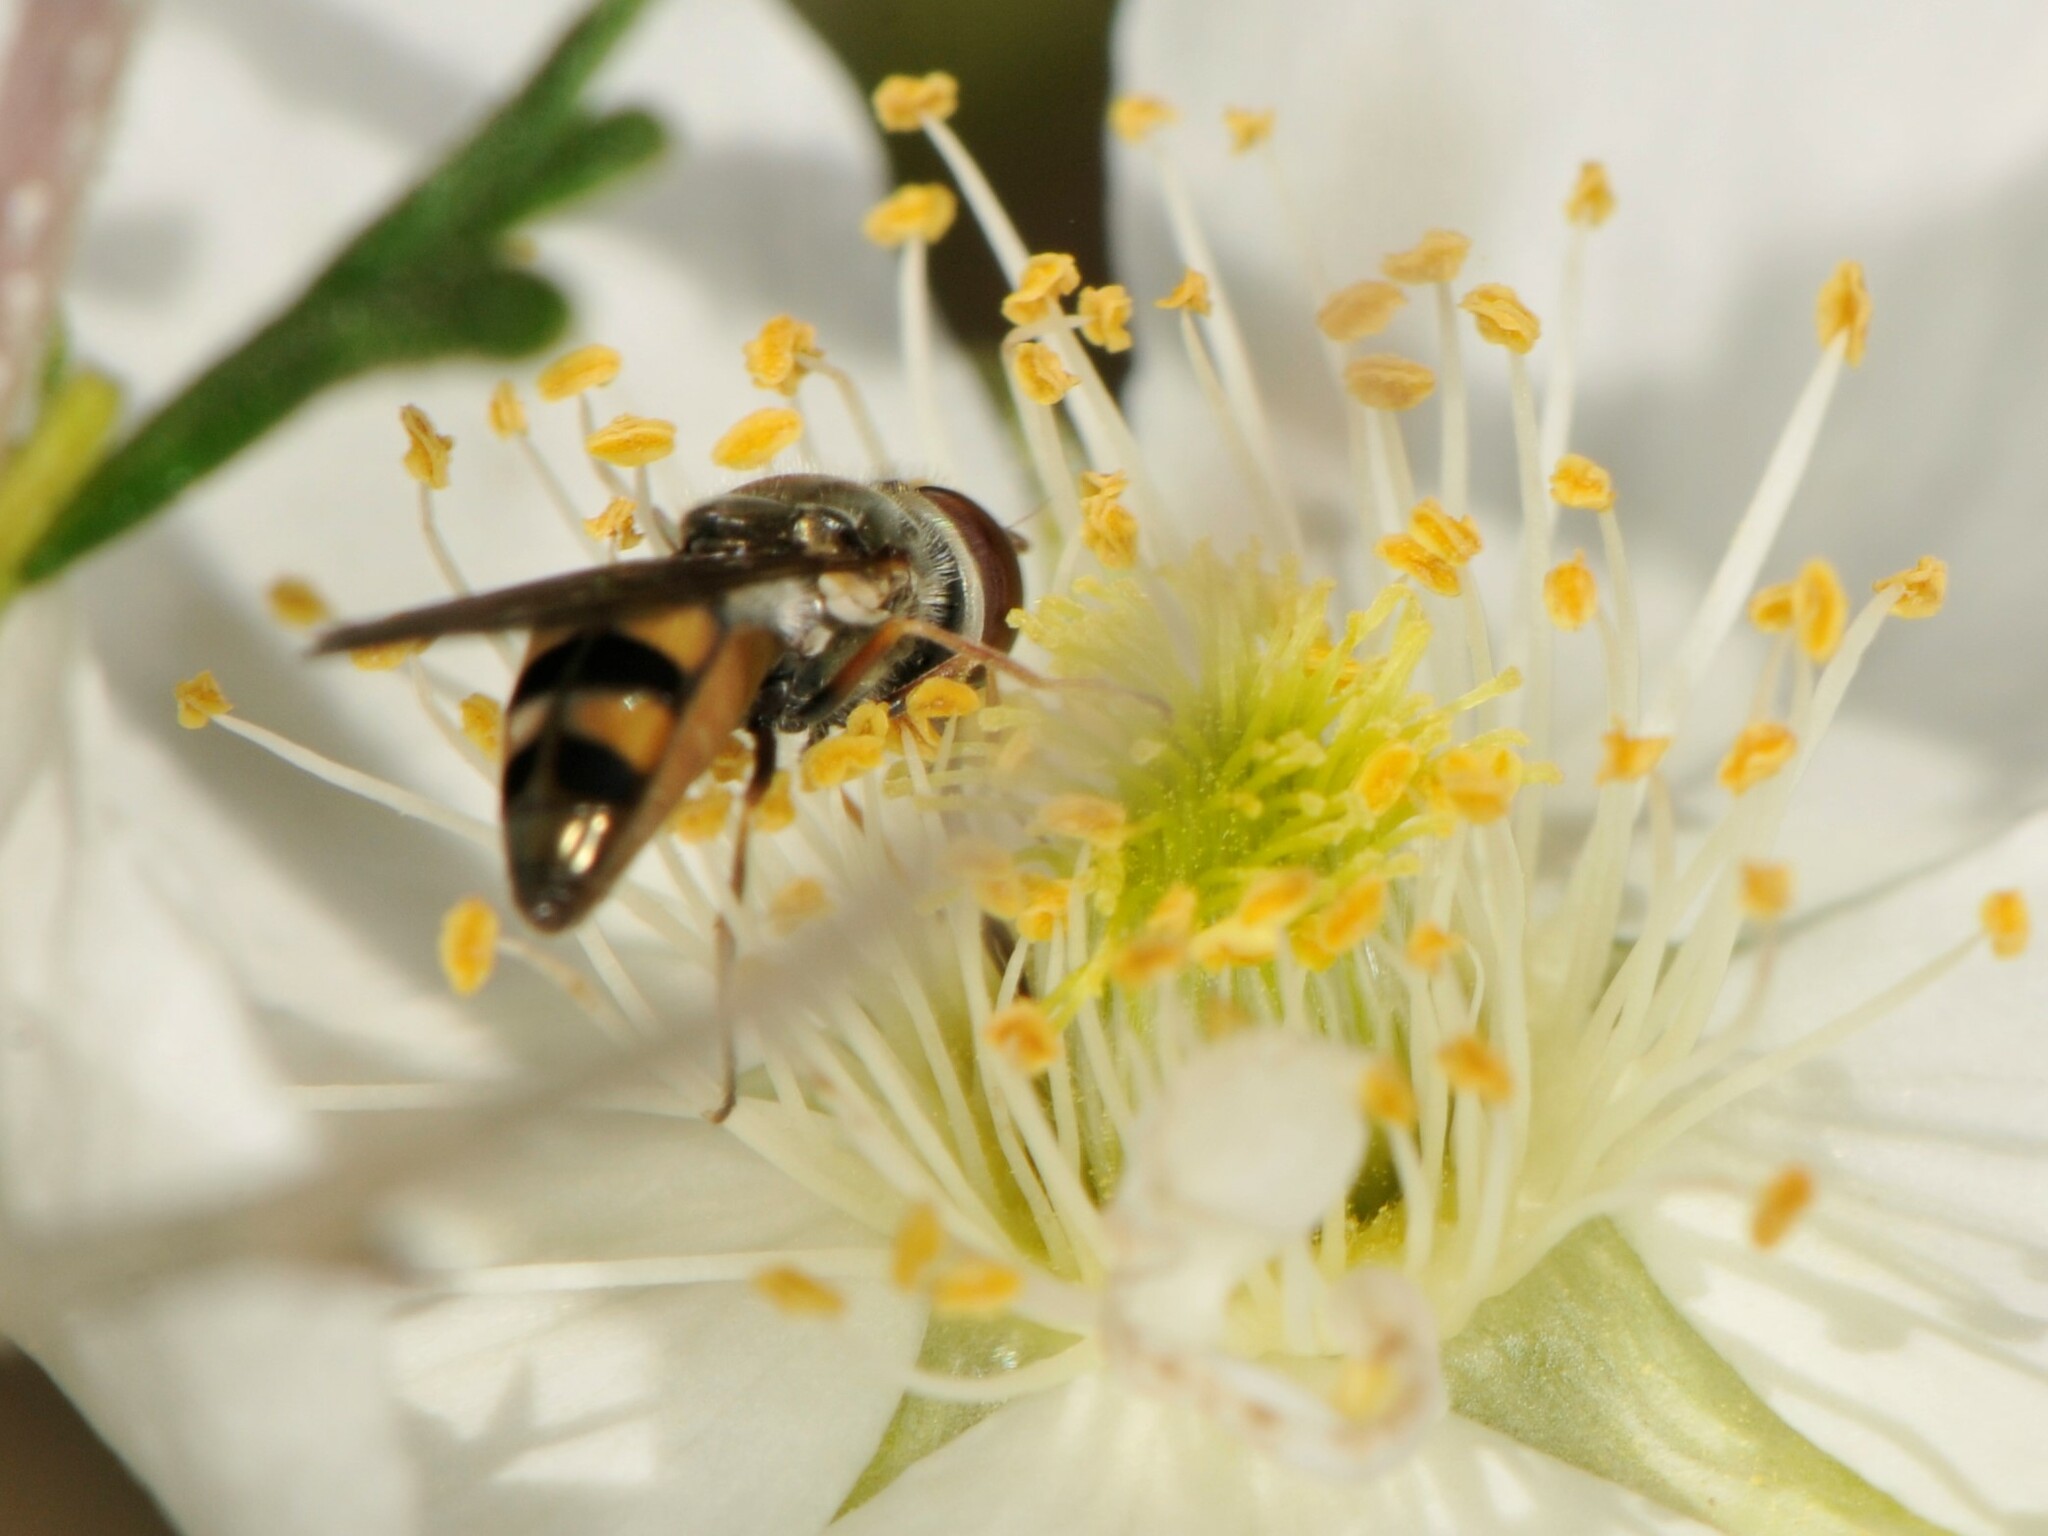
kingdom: Animalia
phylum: Arthropoda
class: Insecta
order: Diptera
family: Syrphidae
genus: Platycheirus
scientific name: Platycheirus
